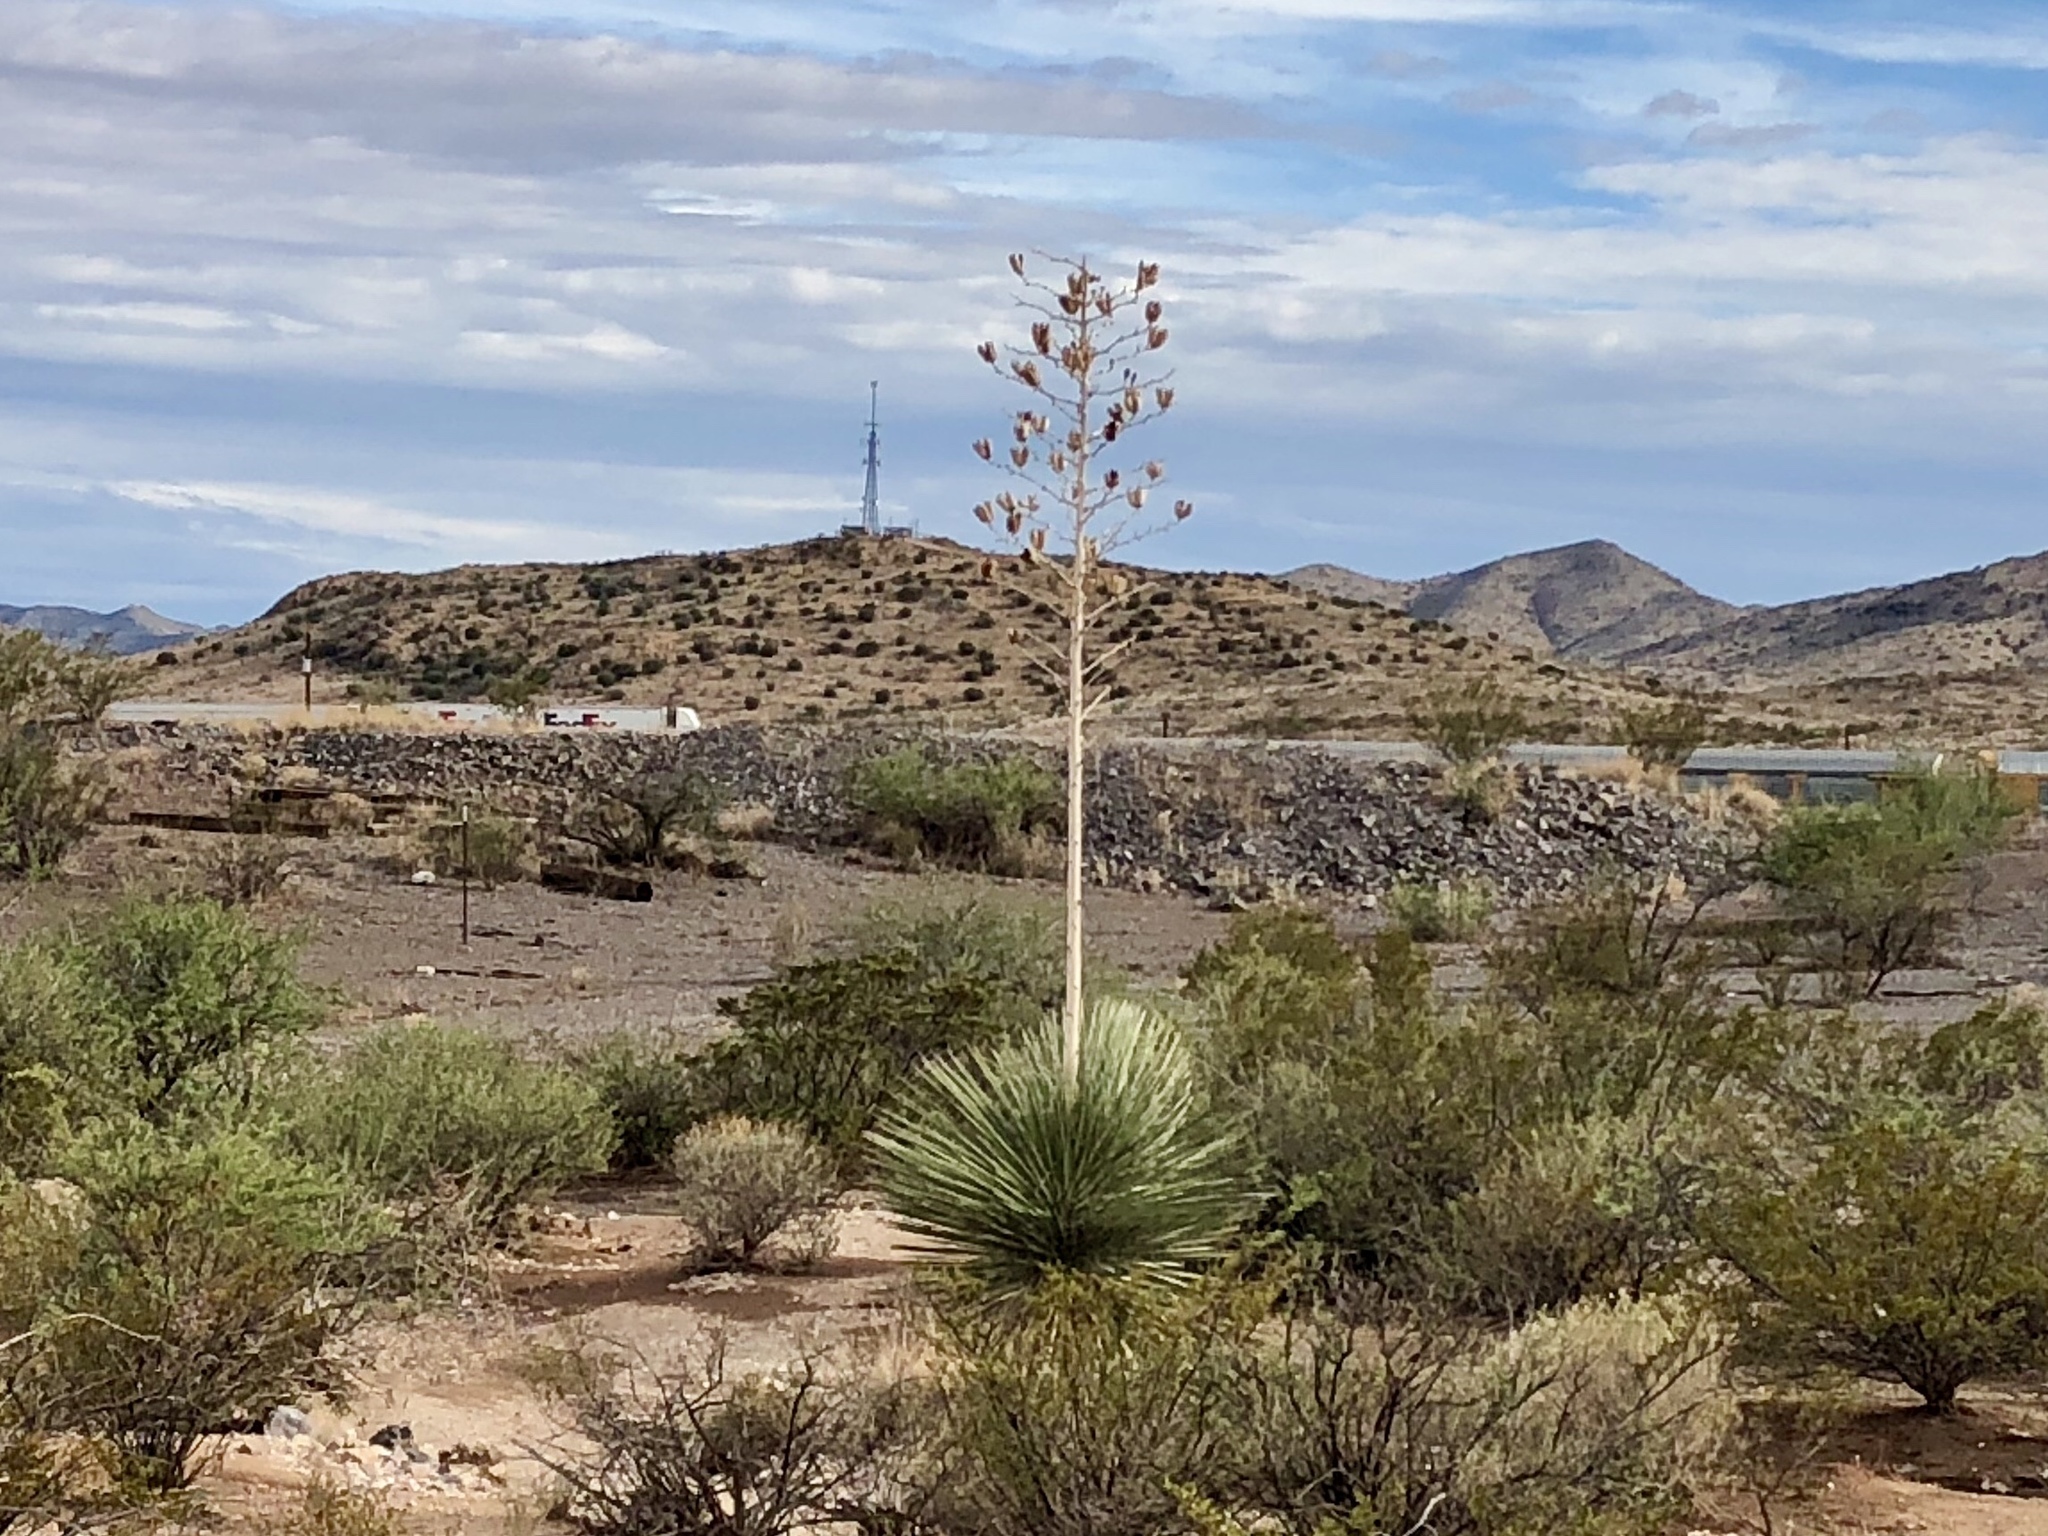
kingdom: Plantae
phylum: Tracheophyta
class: Liliopsida
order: Asparagales
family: Asparagaceae
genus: Yucca
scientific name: Yucca elata
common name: Palmella
